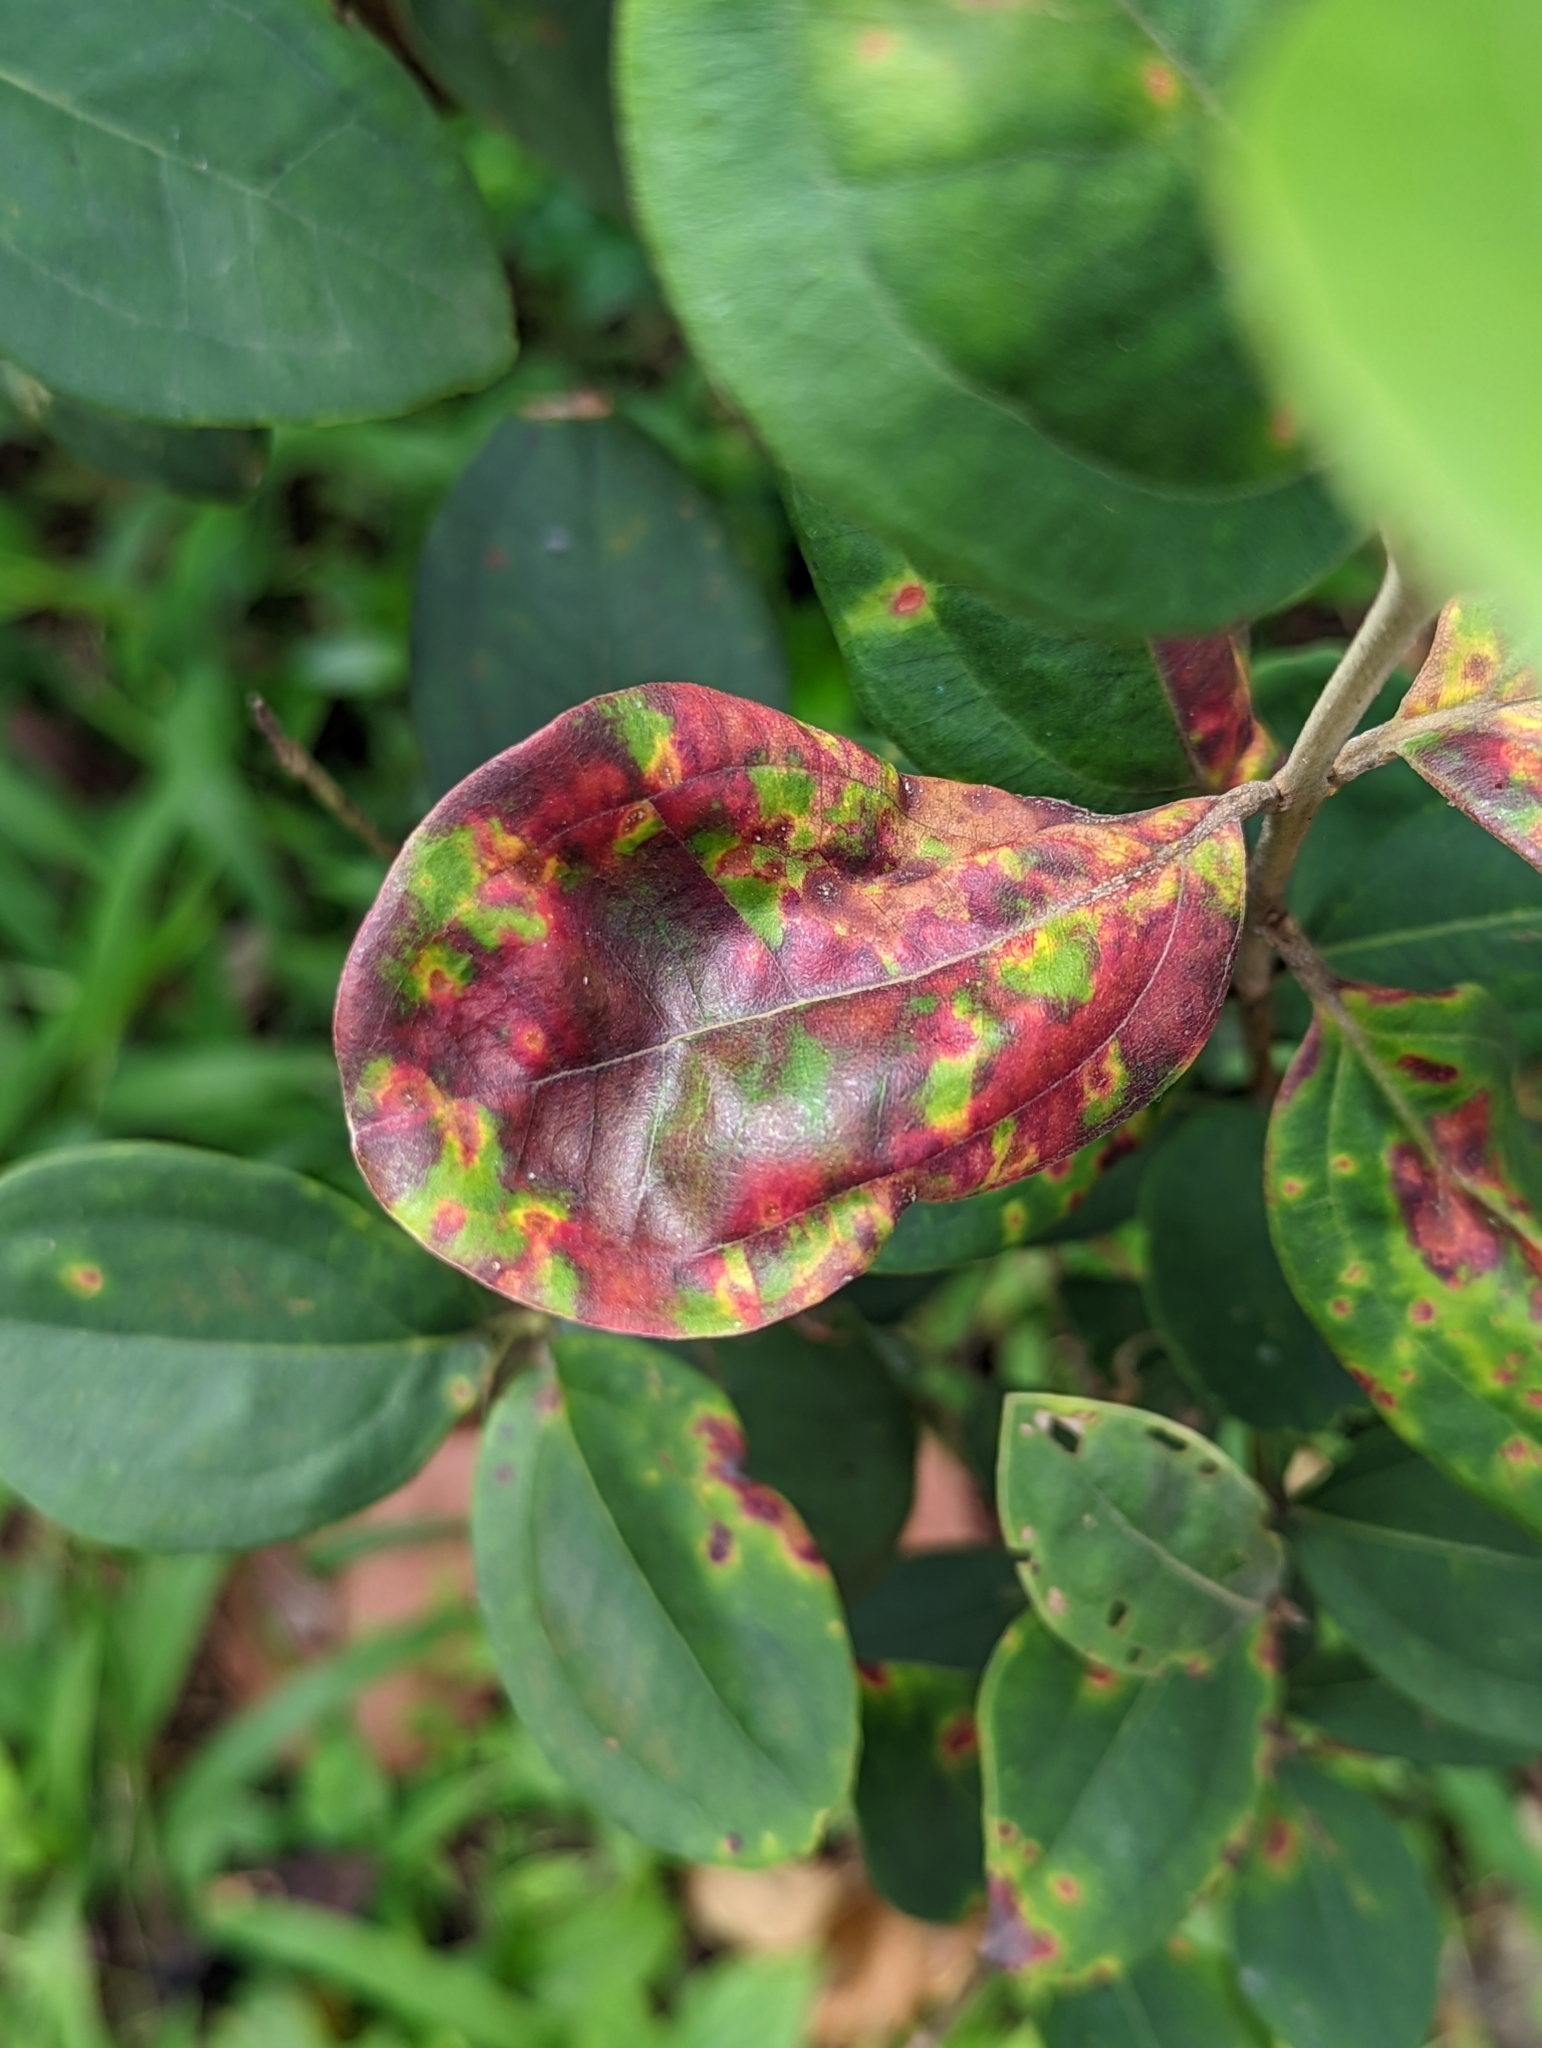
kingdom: Plantae
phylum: Tracheophyta
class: Magnoliopsida
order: Myrtales
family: Myrtaceae
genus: Rhodomyrtus
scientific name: Rhodomyrtus tomentosa
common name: Rose myrtle
